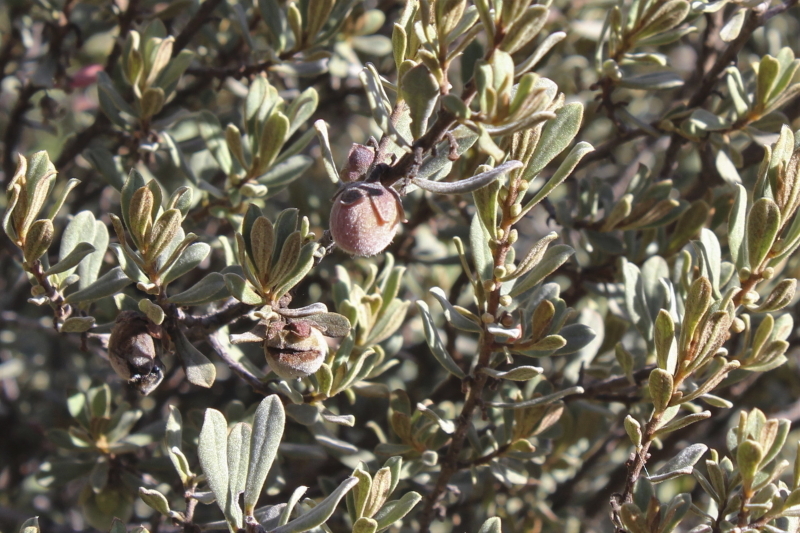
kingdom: Plantae
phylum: Tracheophyta
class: Magnoliopsida
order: Ericales
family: Ebenaceae
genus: Diospyros
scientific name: Diospyros pubescens
